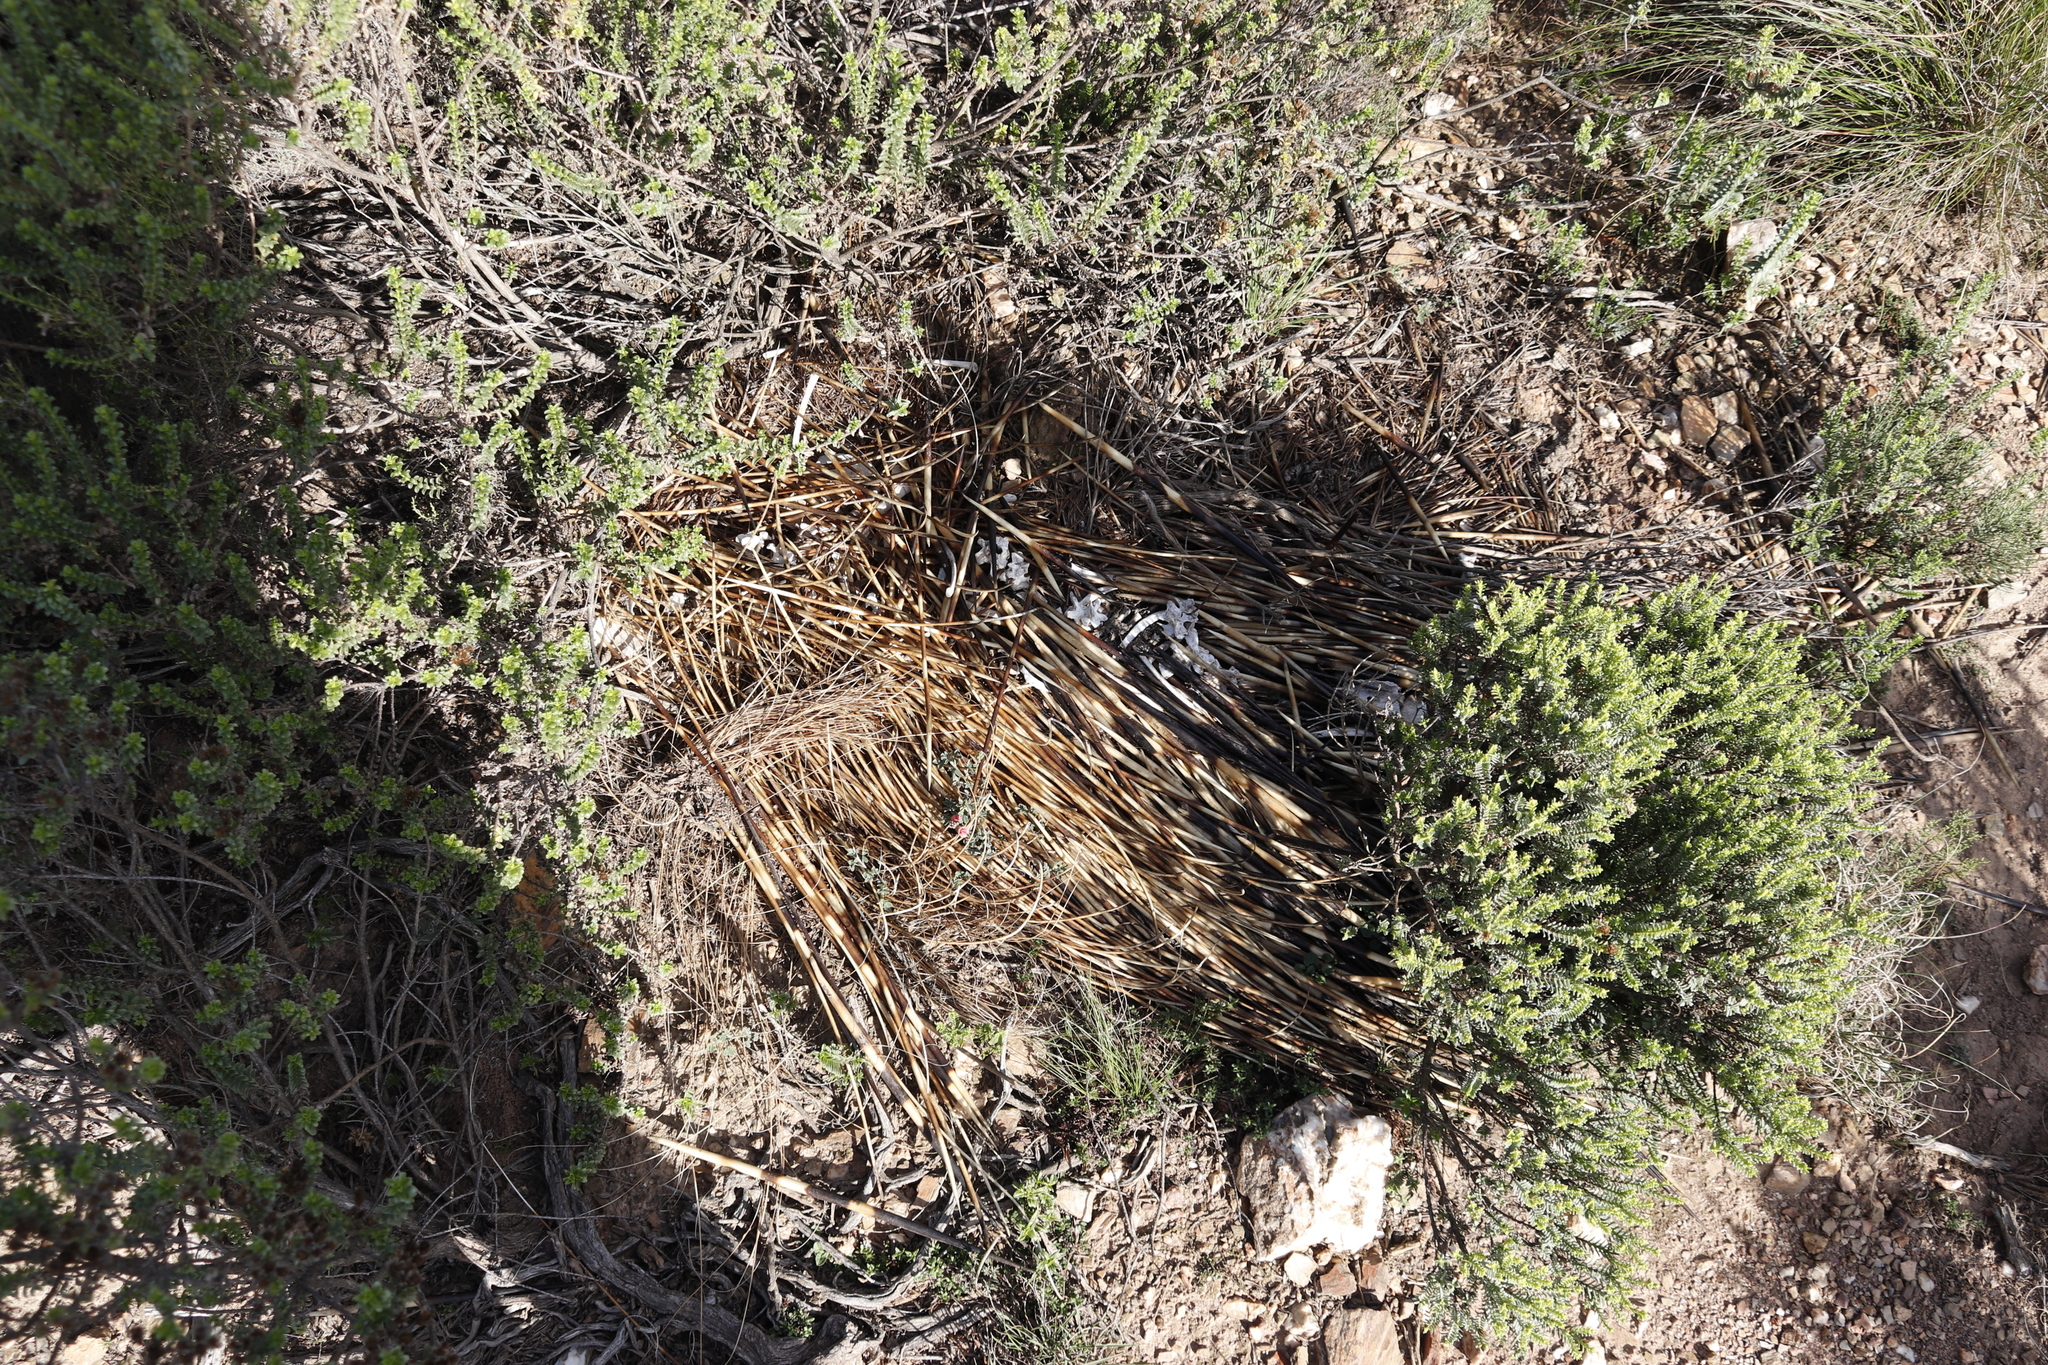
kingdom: Animalia
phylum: Chordata
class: Mammalia
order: Rodentia
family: Hystricidae
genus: Hystrix
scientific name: Hystrix africaeaustralis
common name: Cape porcupine
